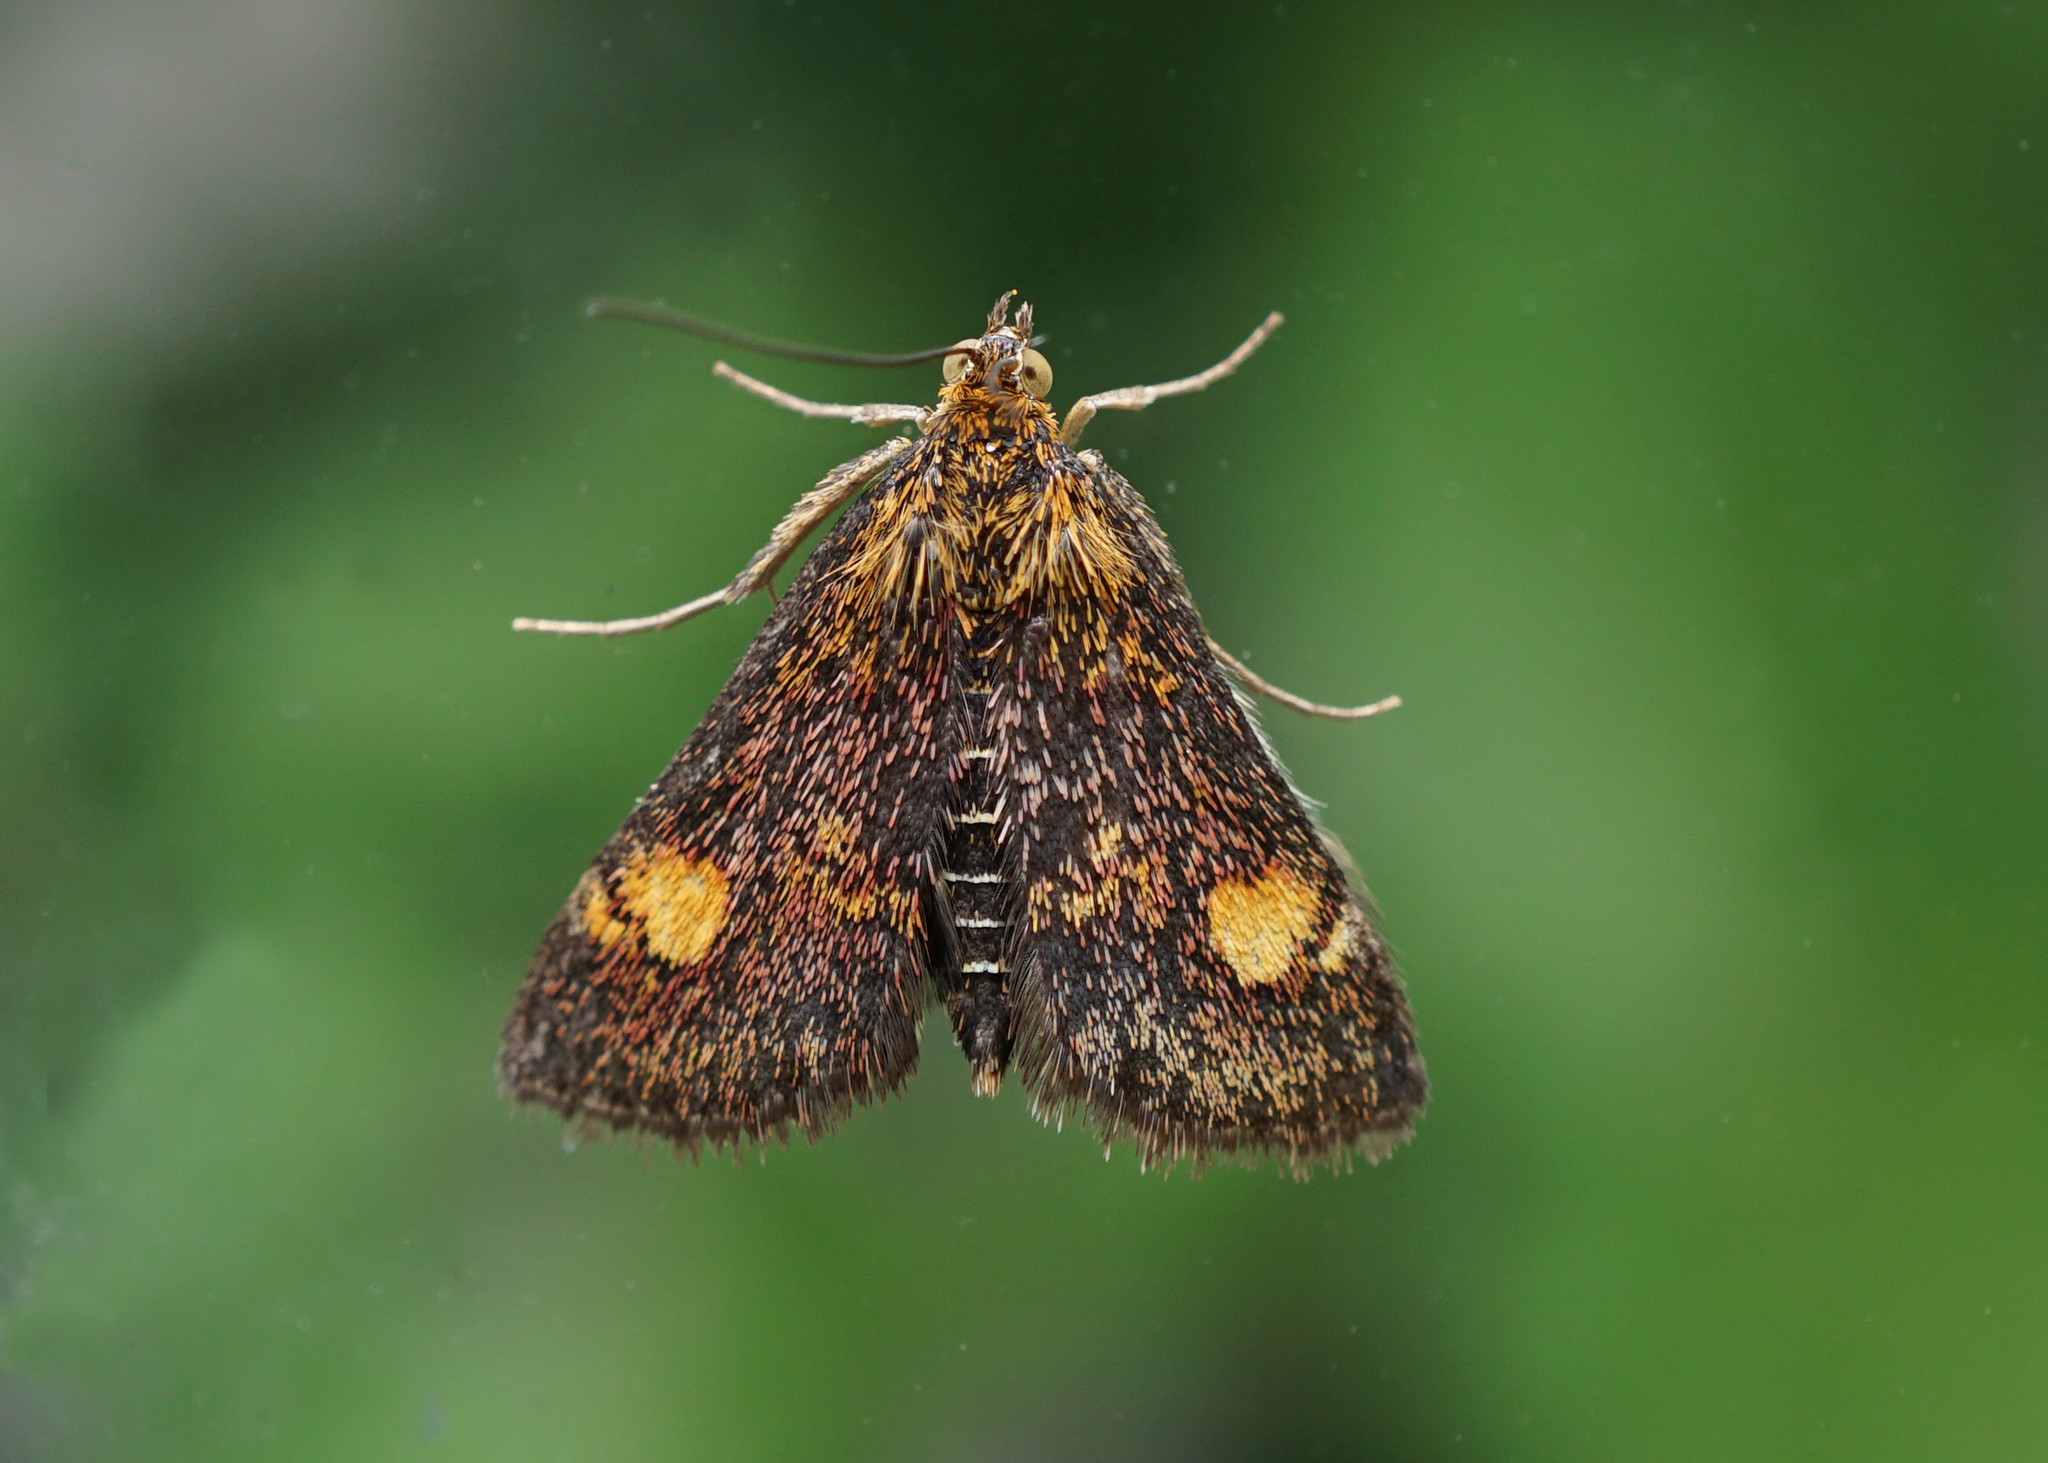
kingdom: Animalia
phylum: Arthropoda
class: Insecta
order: Lepidoptera
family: Crambidae
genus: Pyrausta
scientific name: Pyrausta aurata
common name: Small purple & gold
